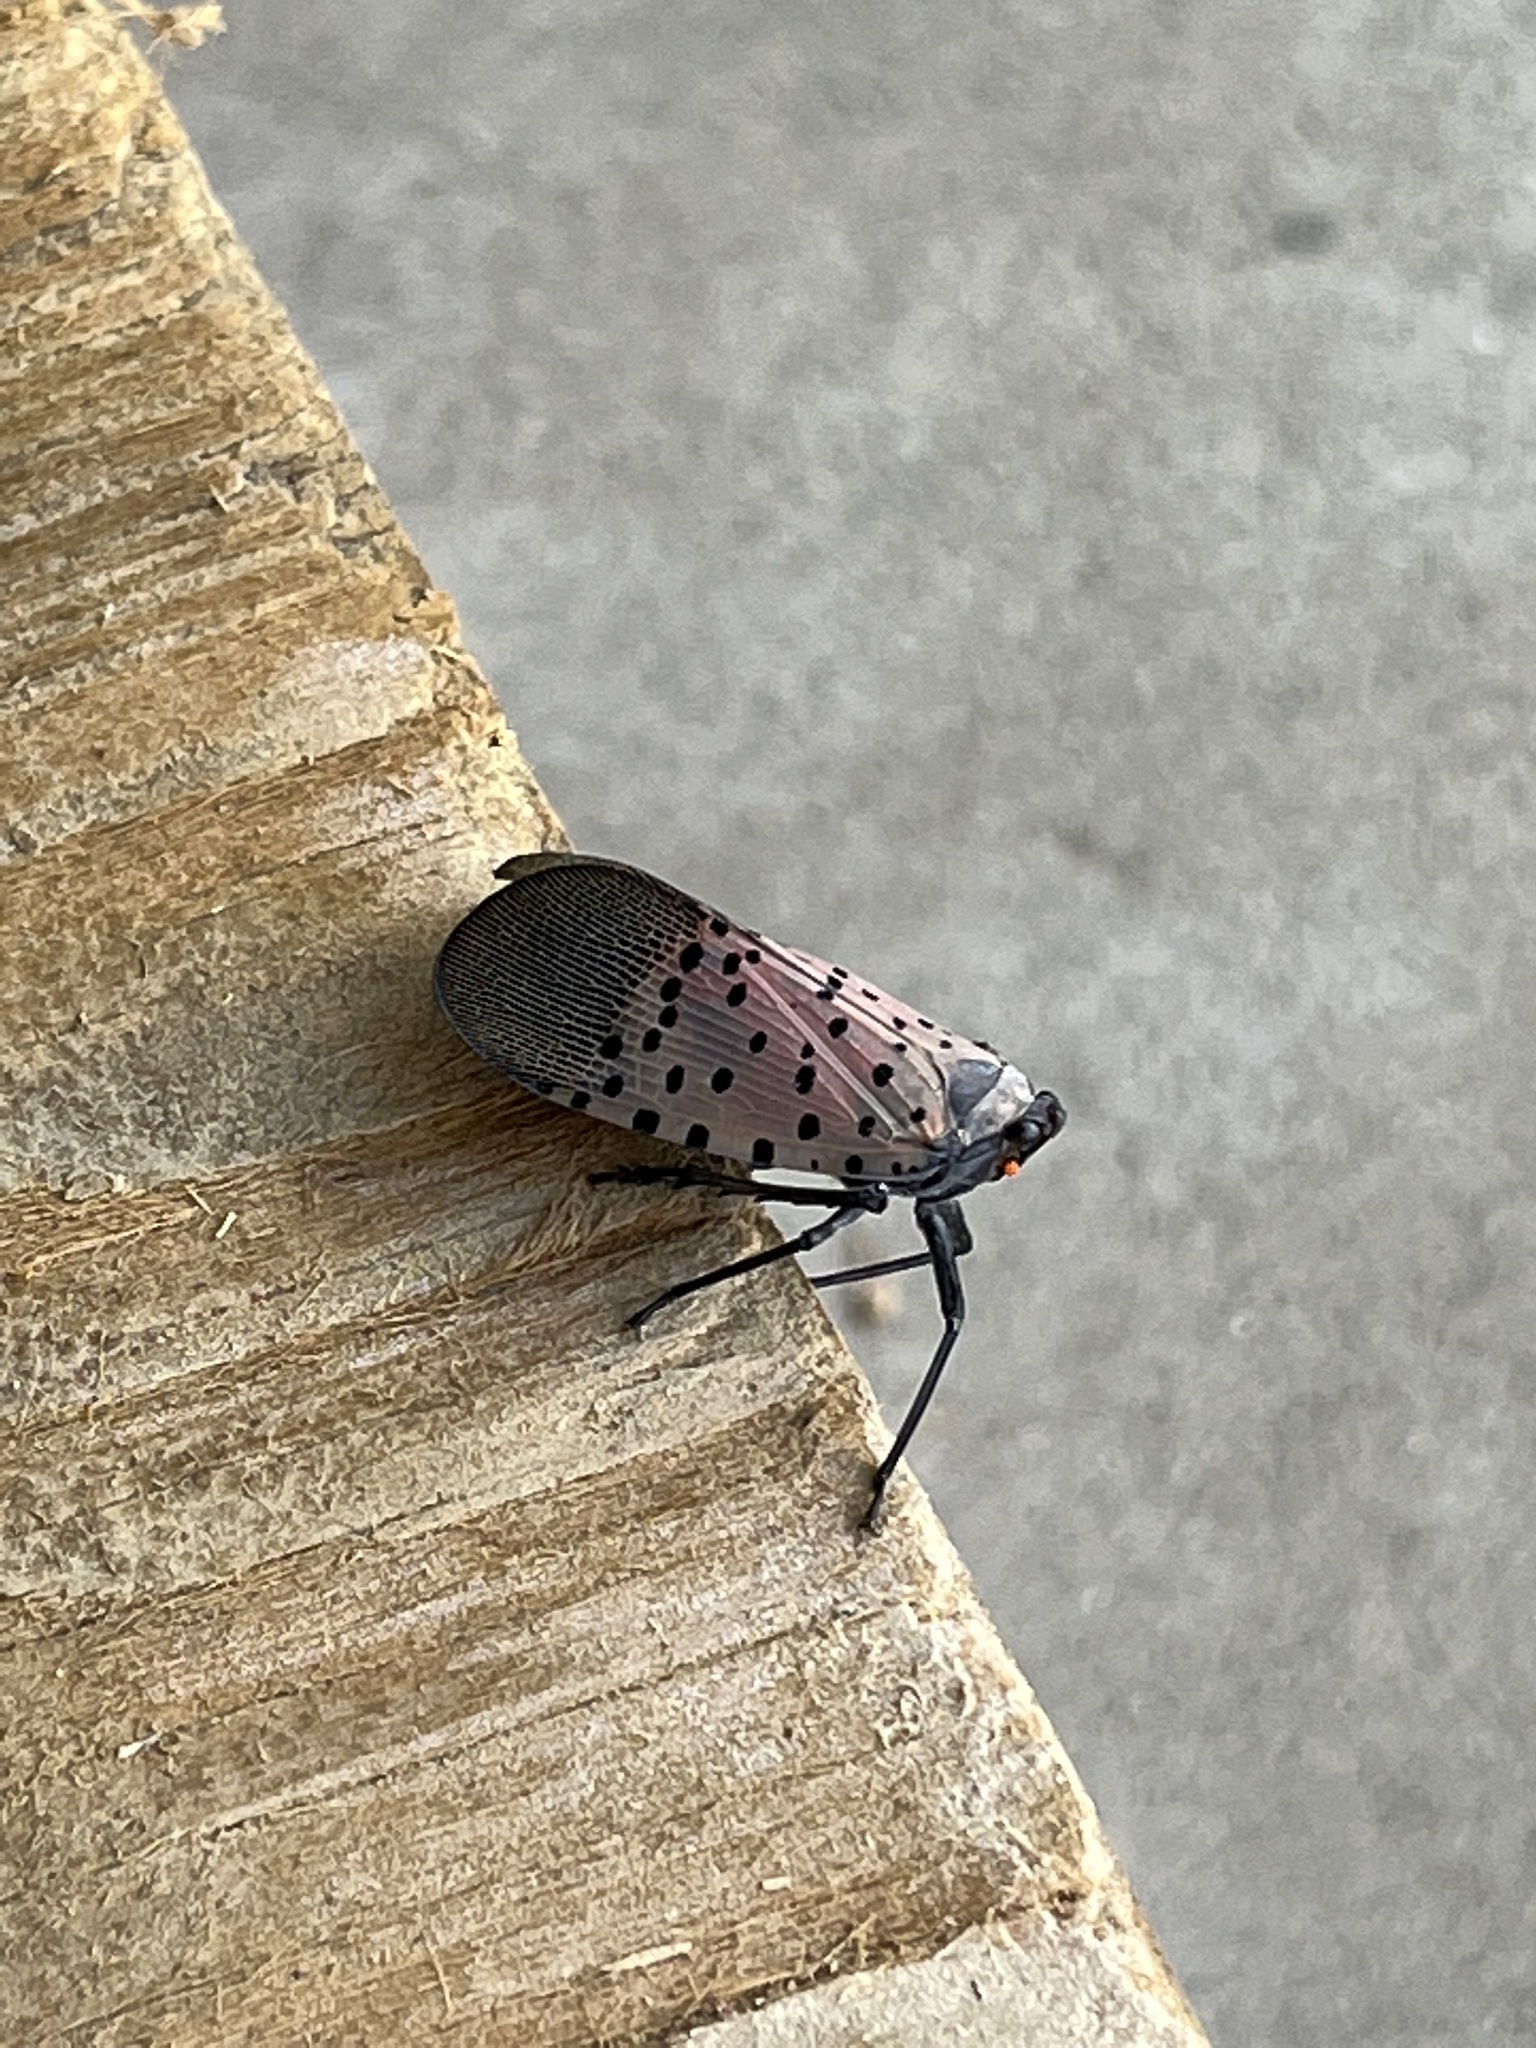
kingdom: Animalia
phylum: Arthropoda
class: Insecta
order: Hemiptera
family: Fulgoridae
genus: Lycorma
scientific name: Lycorma delicatula
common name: Spotted lanternfly
